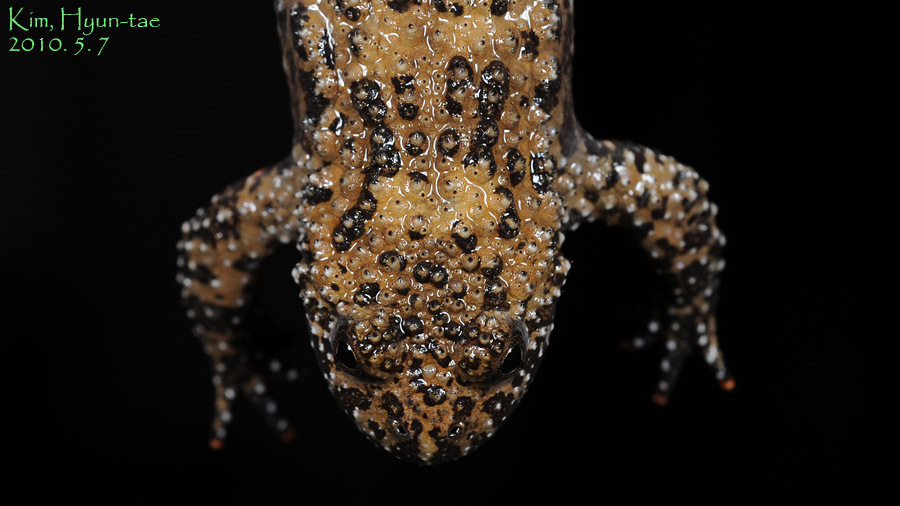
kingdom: Animalia
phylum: Chordata
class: Amphibia
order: Anura
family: Bombinatoridae
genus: Bombina
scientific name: Bombina orientalis
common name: Oriental firebelly toad
